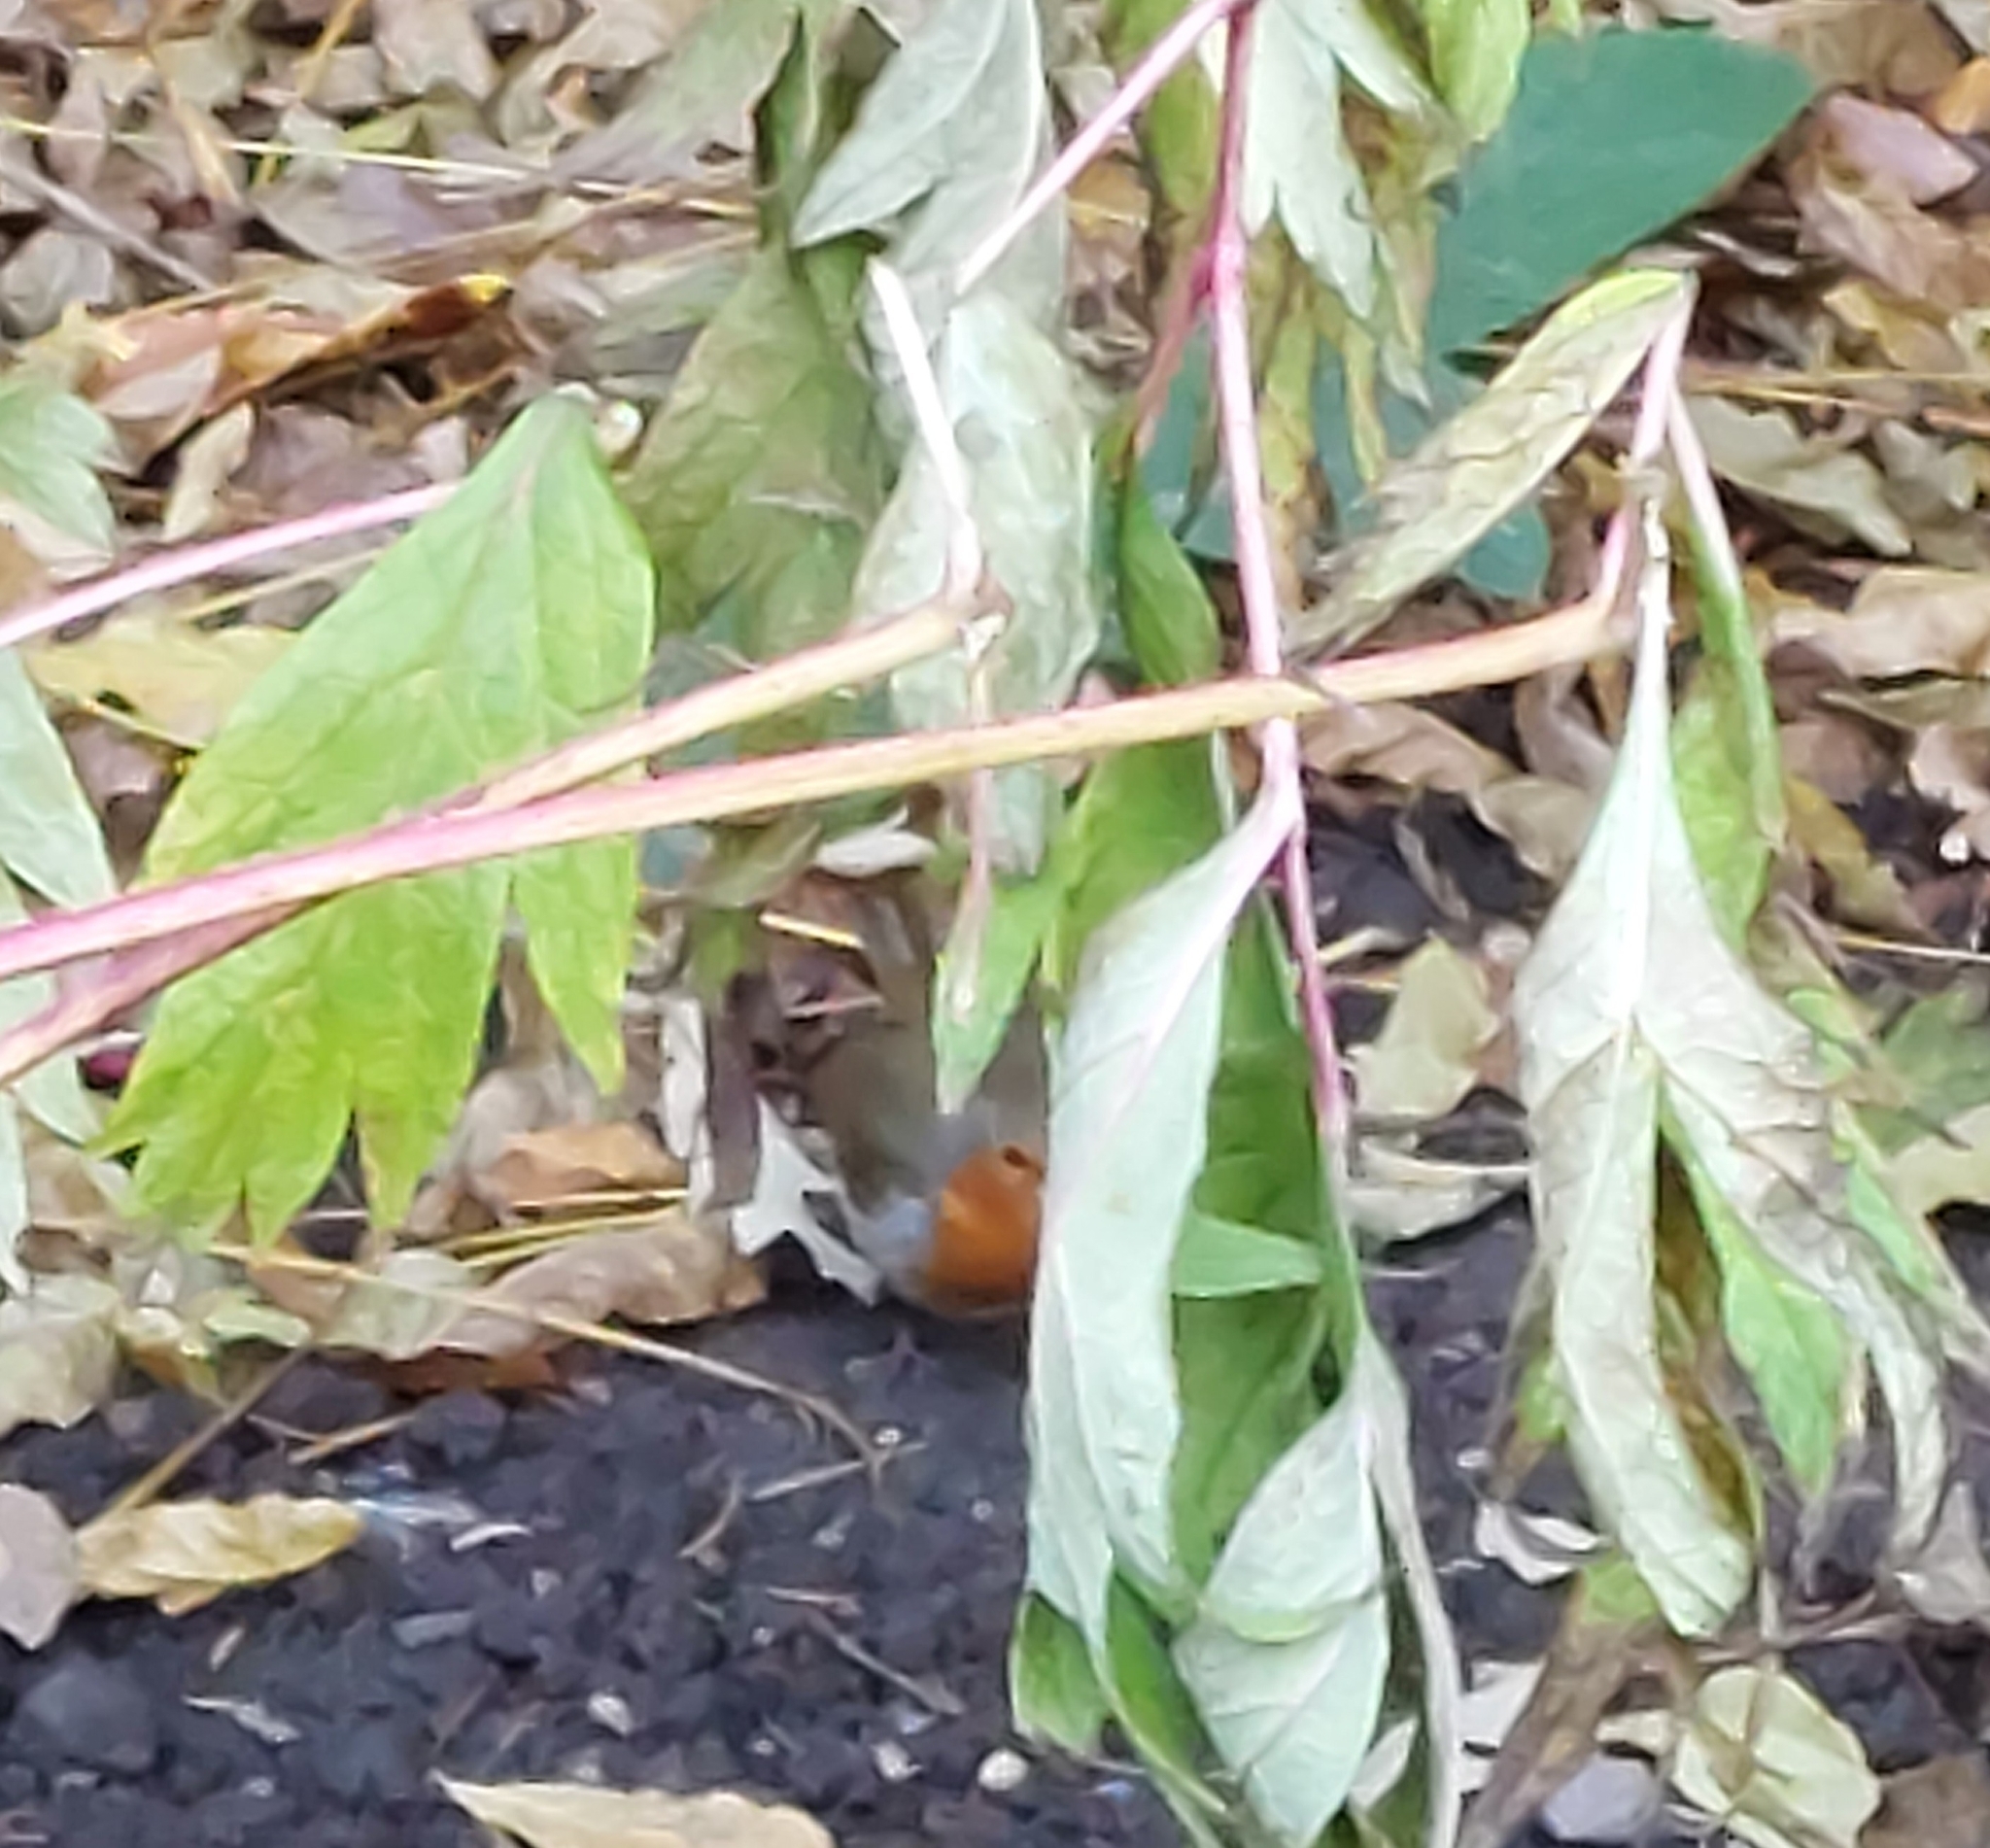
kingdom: Animalia
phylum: Chordata
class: Aves
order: Passeriformes
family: Muscicapidae
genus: Erithacus
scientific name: Erithacus rubecula
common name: European robin
